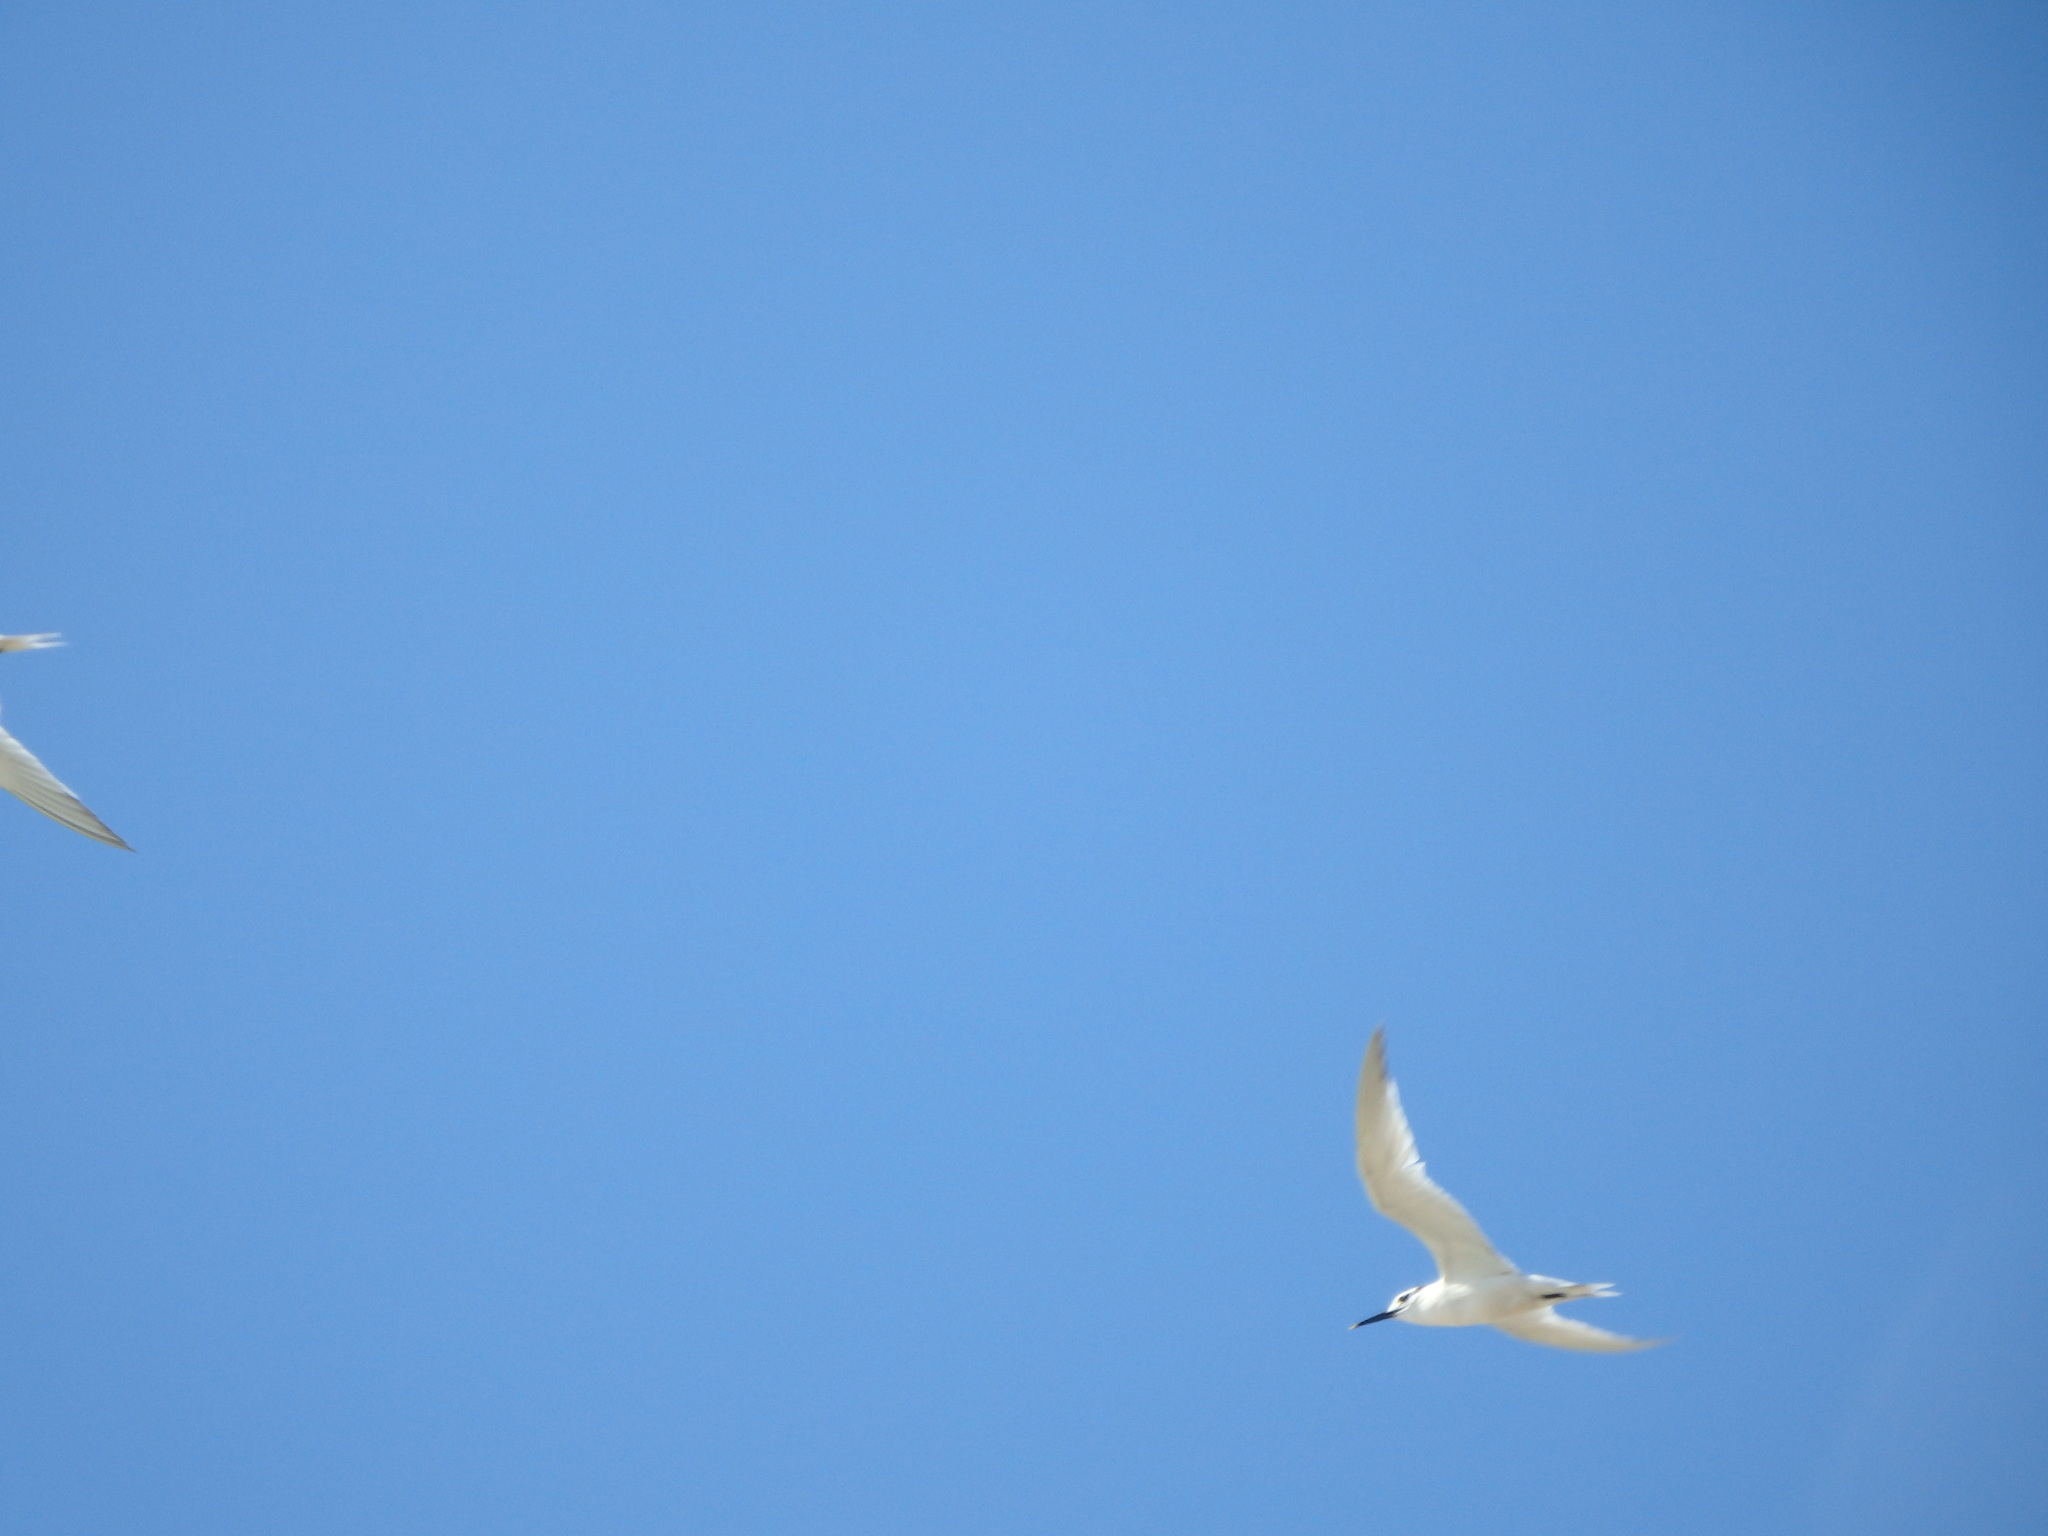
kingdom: Animalia
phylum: Chordata
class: Aves
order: Charadriiformes
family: Laridae
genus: Thalasseus
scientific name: Thalasseus sandvicensis
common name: Sandwich tern
